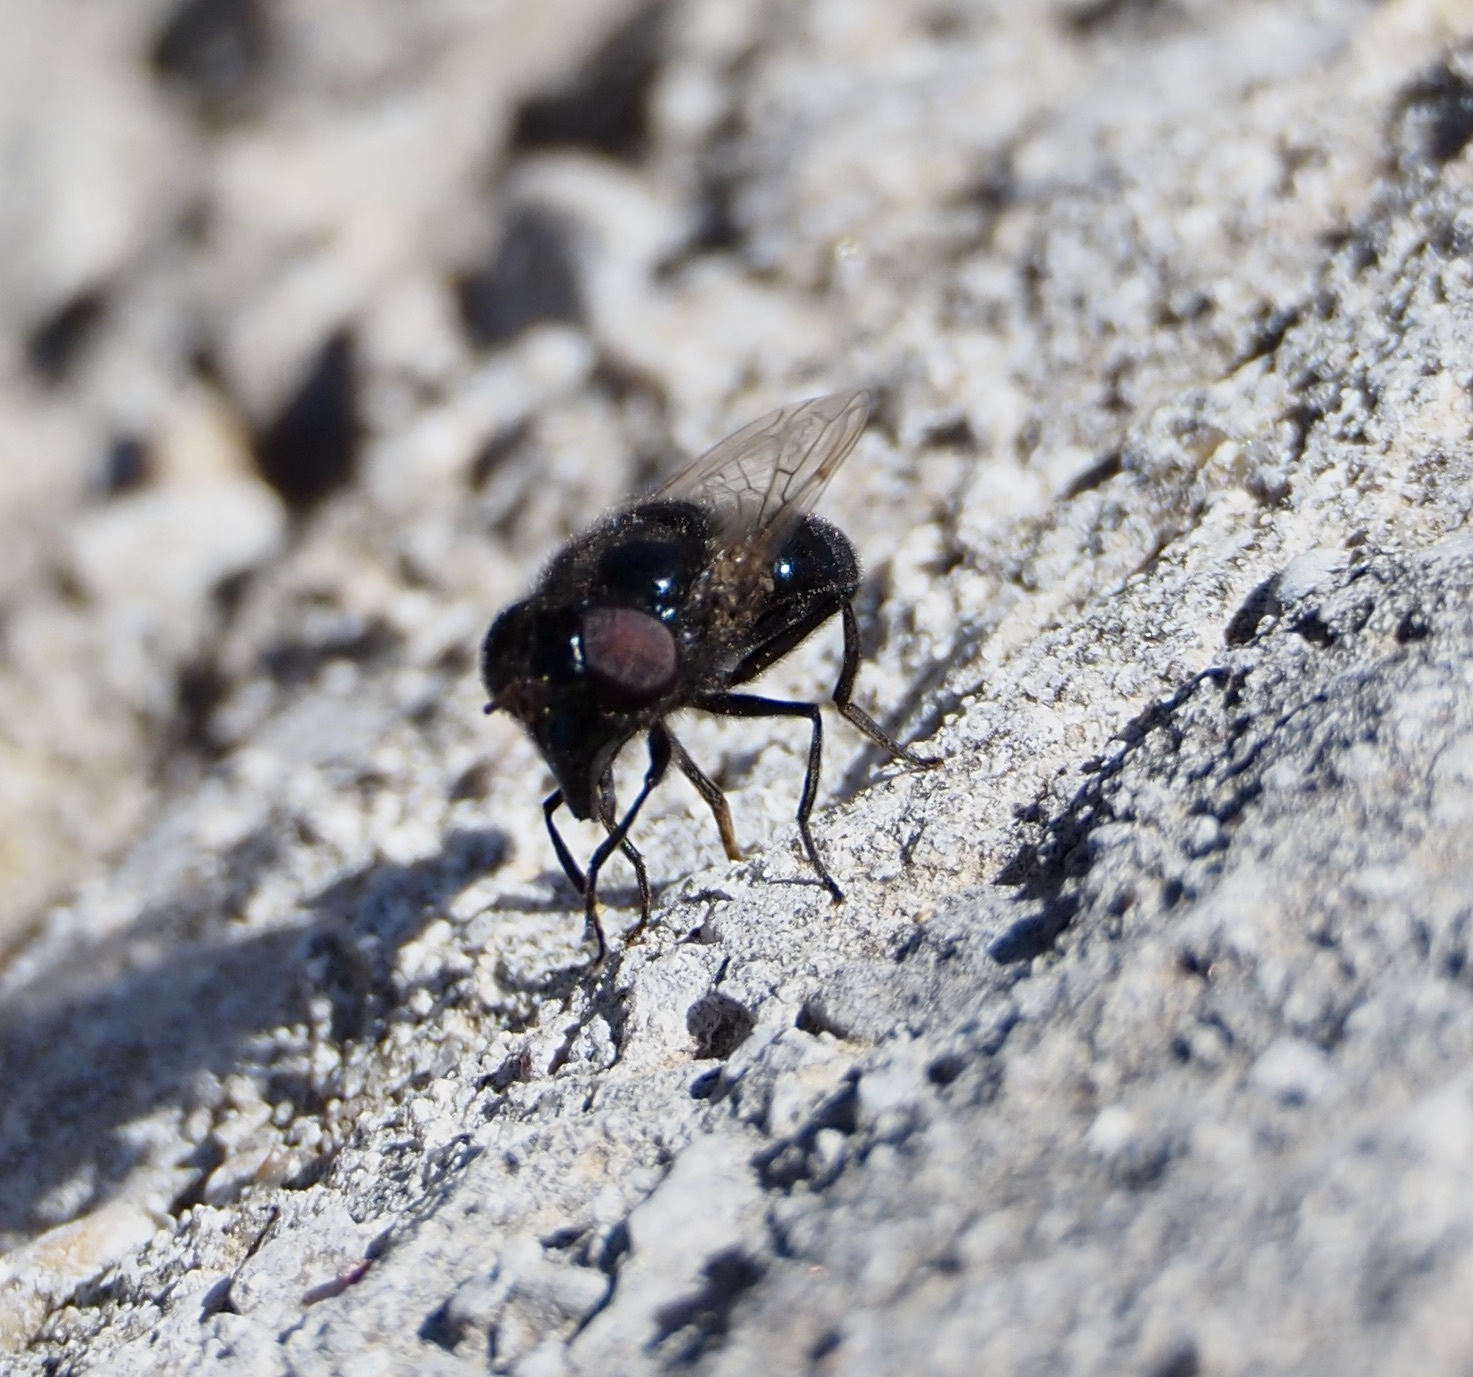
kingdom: Animalia
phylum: Arthropoda
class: Insecta
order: Diptera
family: Syrphidae
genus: Copestylum
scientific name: Copestylum comstocki
